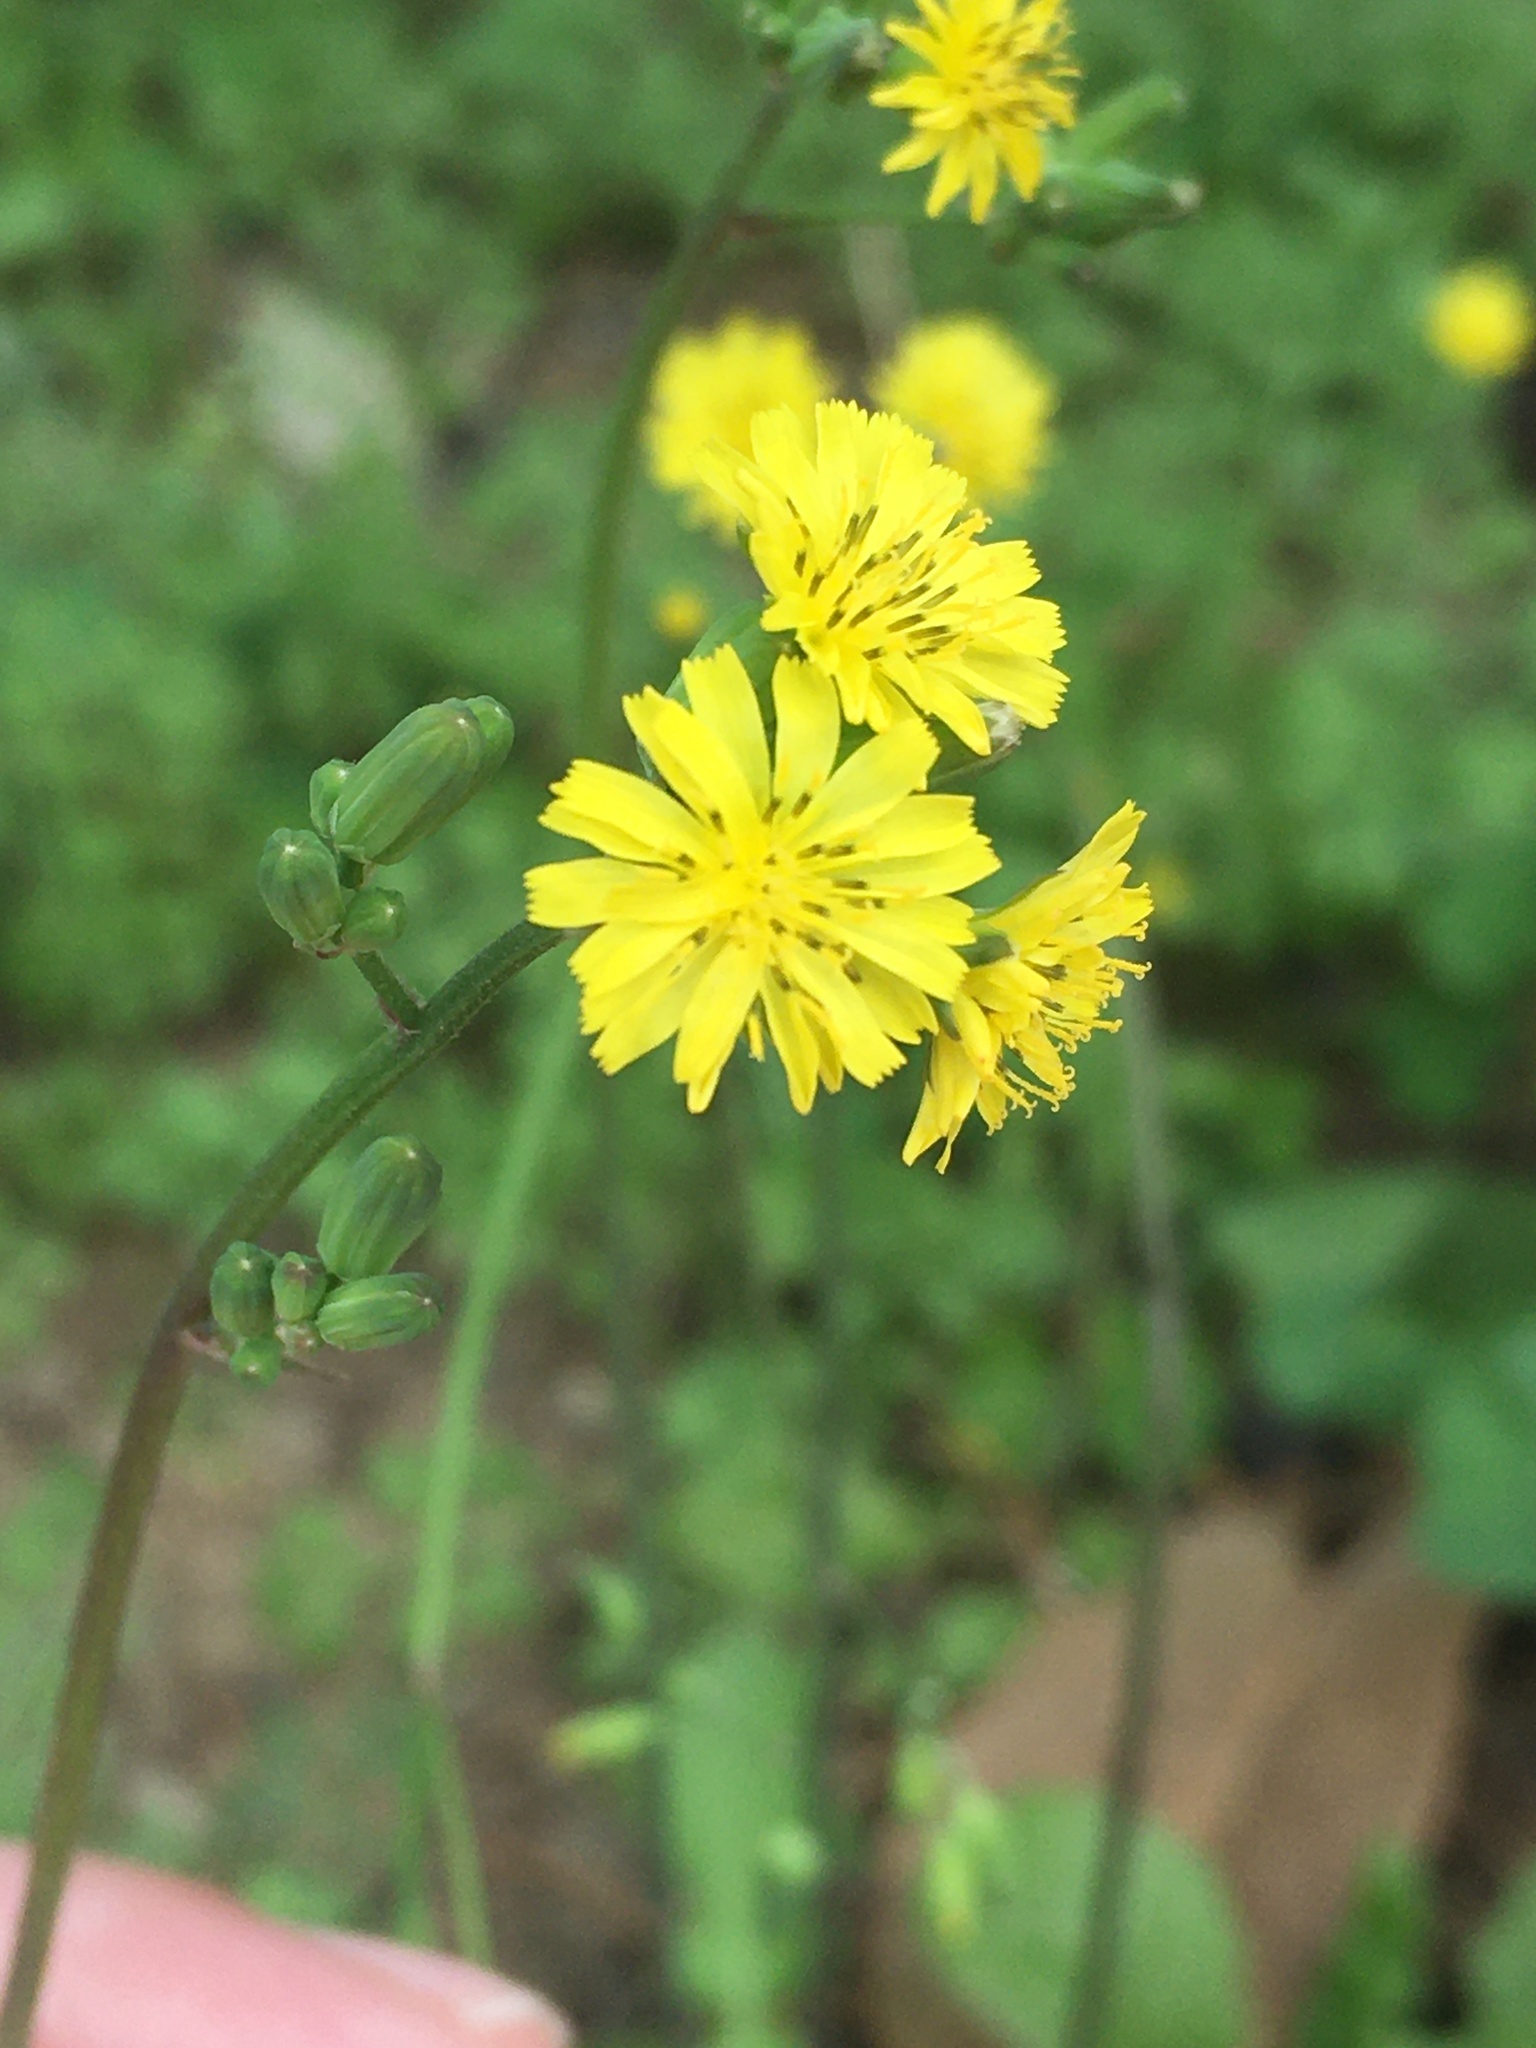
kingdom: Plantae
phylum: Tracheophyta
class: Magnoliopsida
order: Asterales
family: Asteraceae
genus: Youngia
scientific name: Youngia japonica
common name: Oriental false hawksbeard
